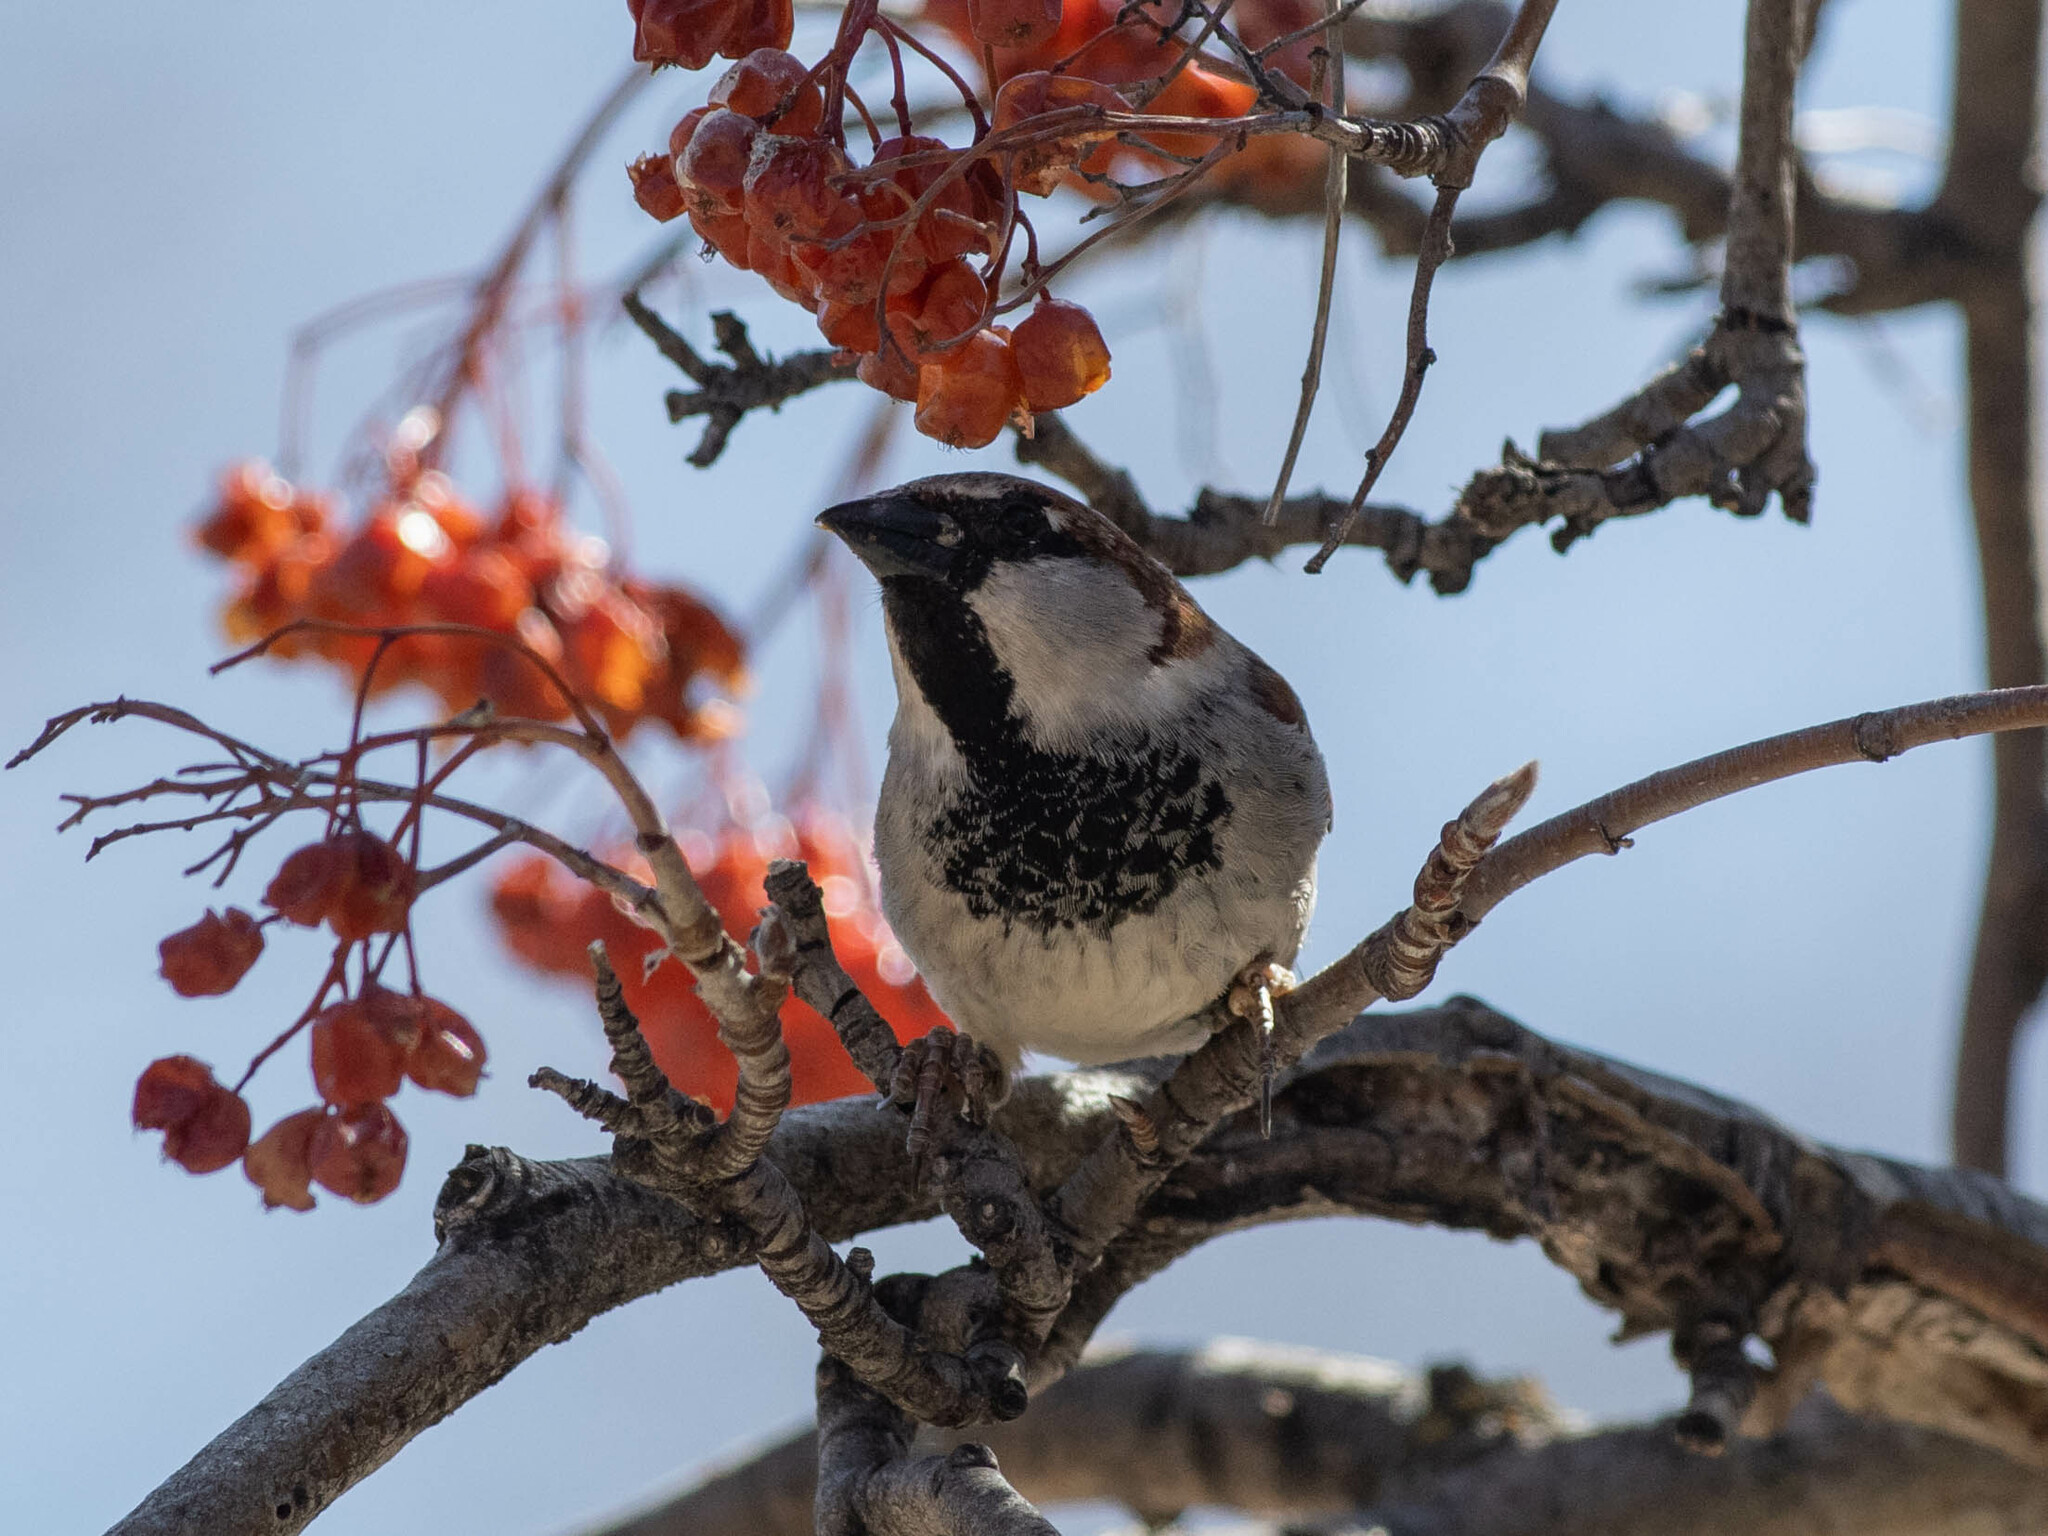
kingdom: Animalia
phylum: Chordata
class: Aves
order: Passeriformes
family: Passeridae
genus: Passer
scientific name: Passer domesticus
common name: House sparrow
